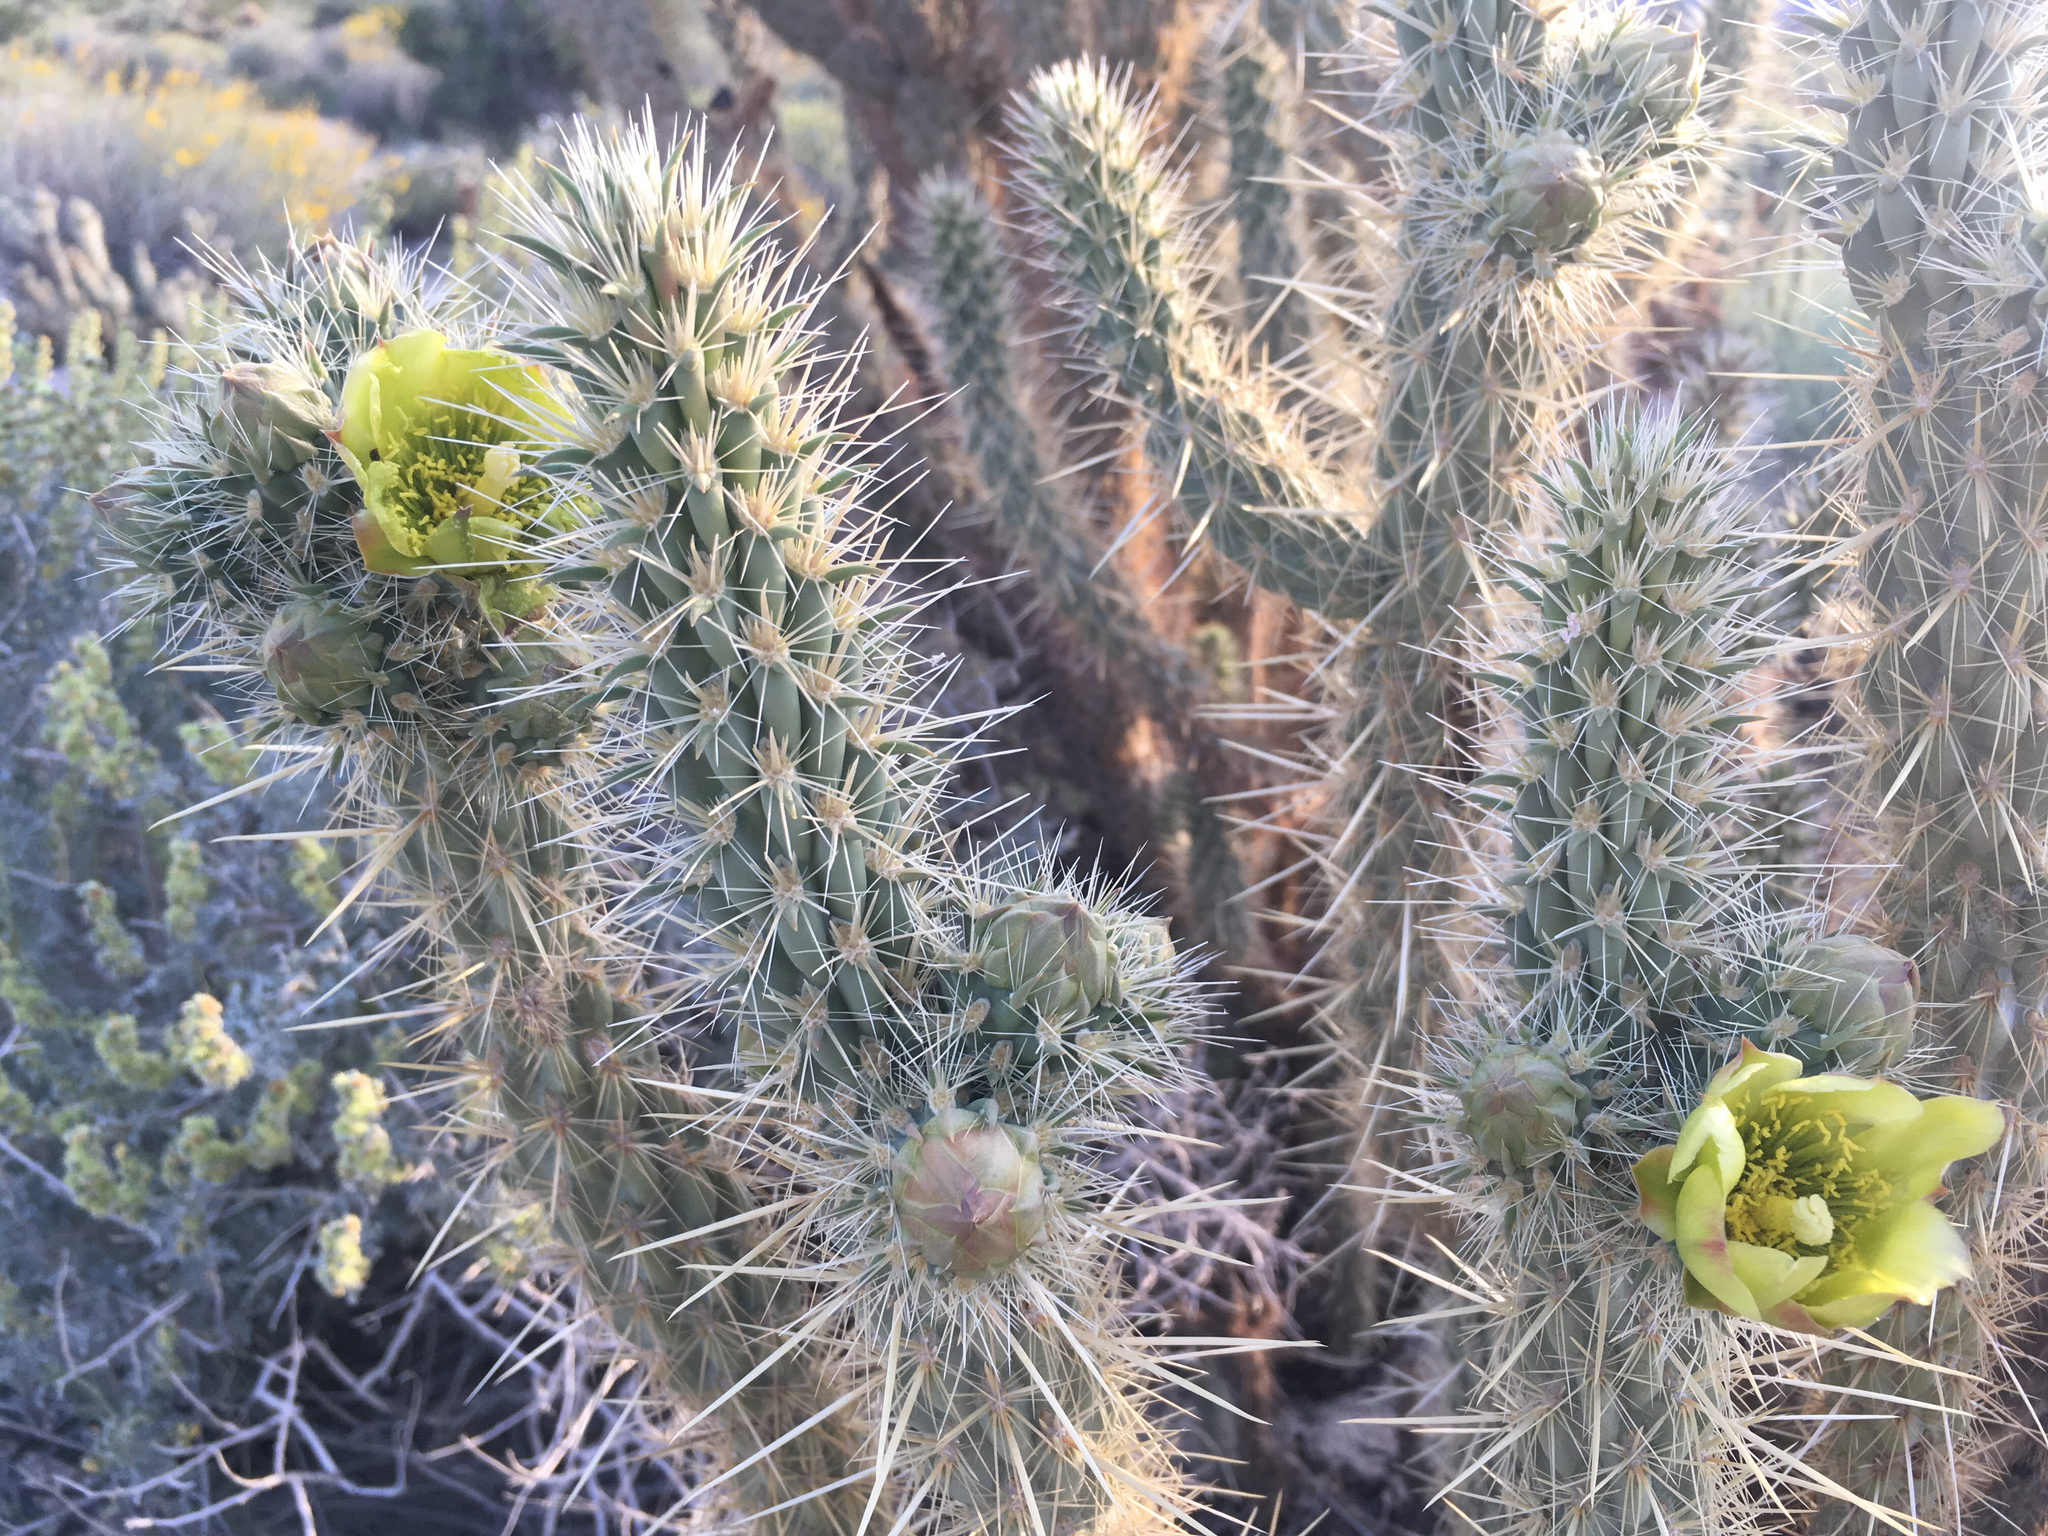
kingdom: Plantae
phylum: Tracheophyta
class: Magnoliopsida
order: Caryophyllales
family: Cactaceae
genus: Cylindropuntia
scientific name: Cylindropuntia ganderi
